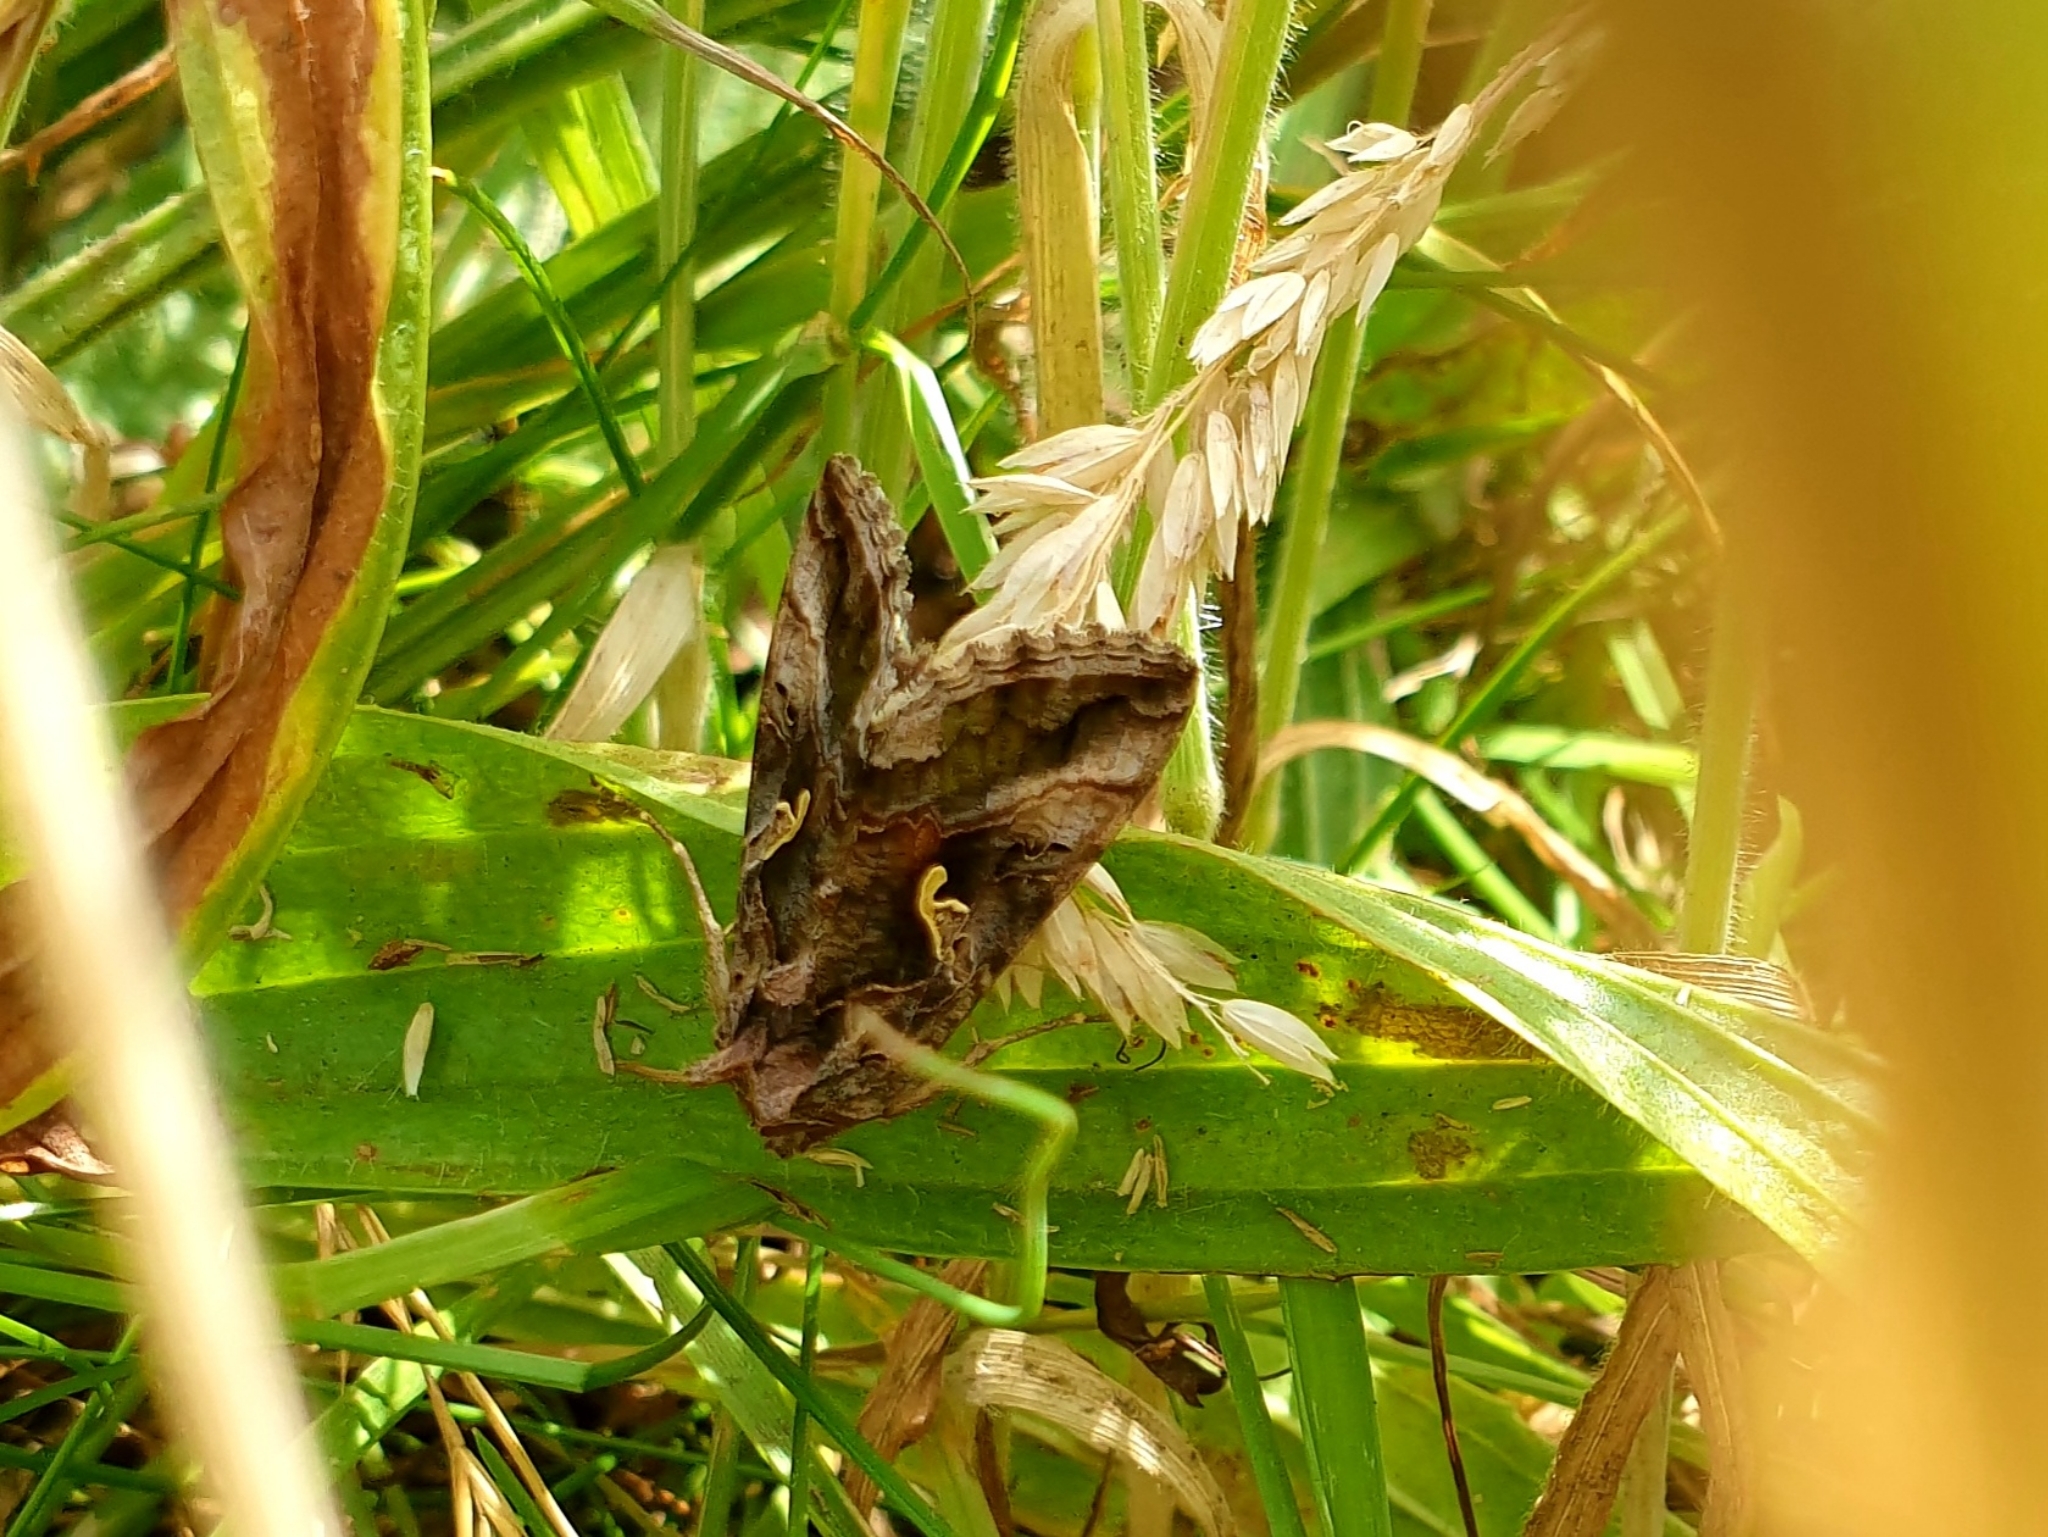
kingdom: Animalia
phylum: Arthropoda
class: Insecta
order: Lepidoptera
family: Noctuidae
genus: Autographa
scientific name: Autographa gamma
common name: Silver y
